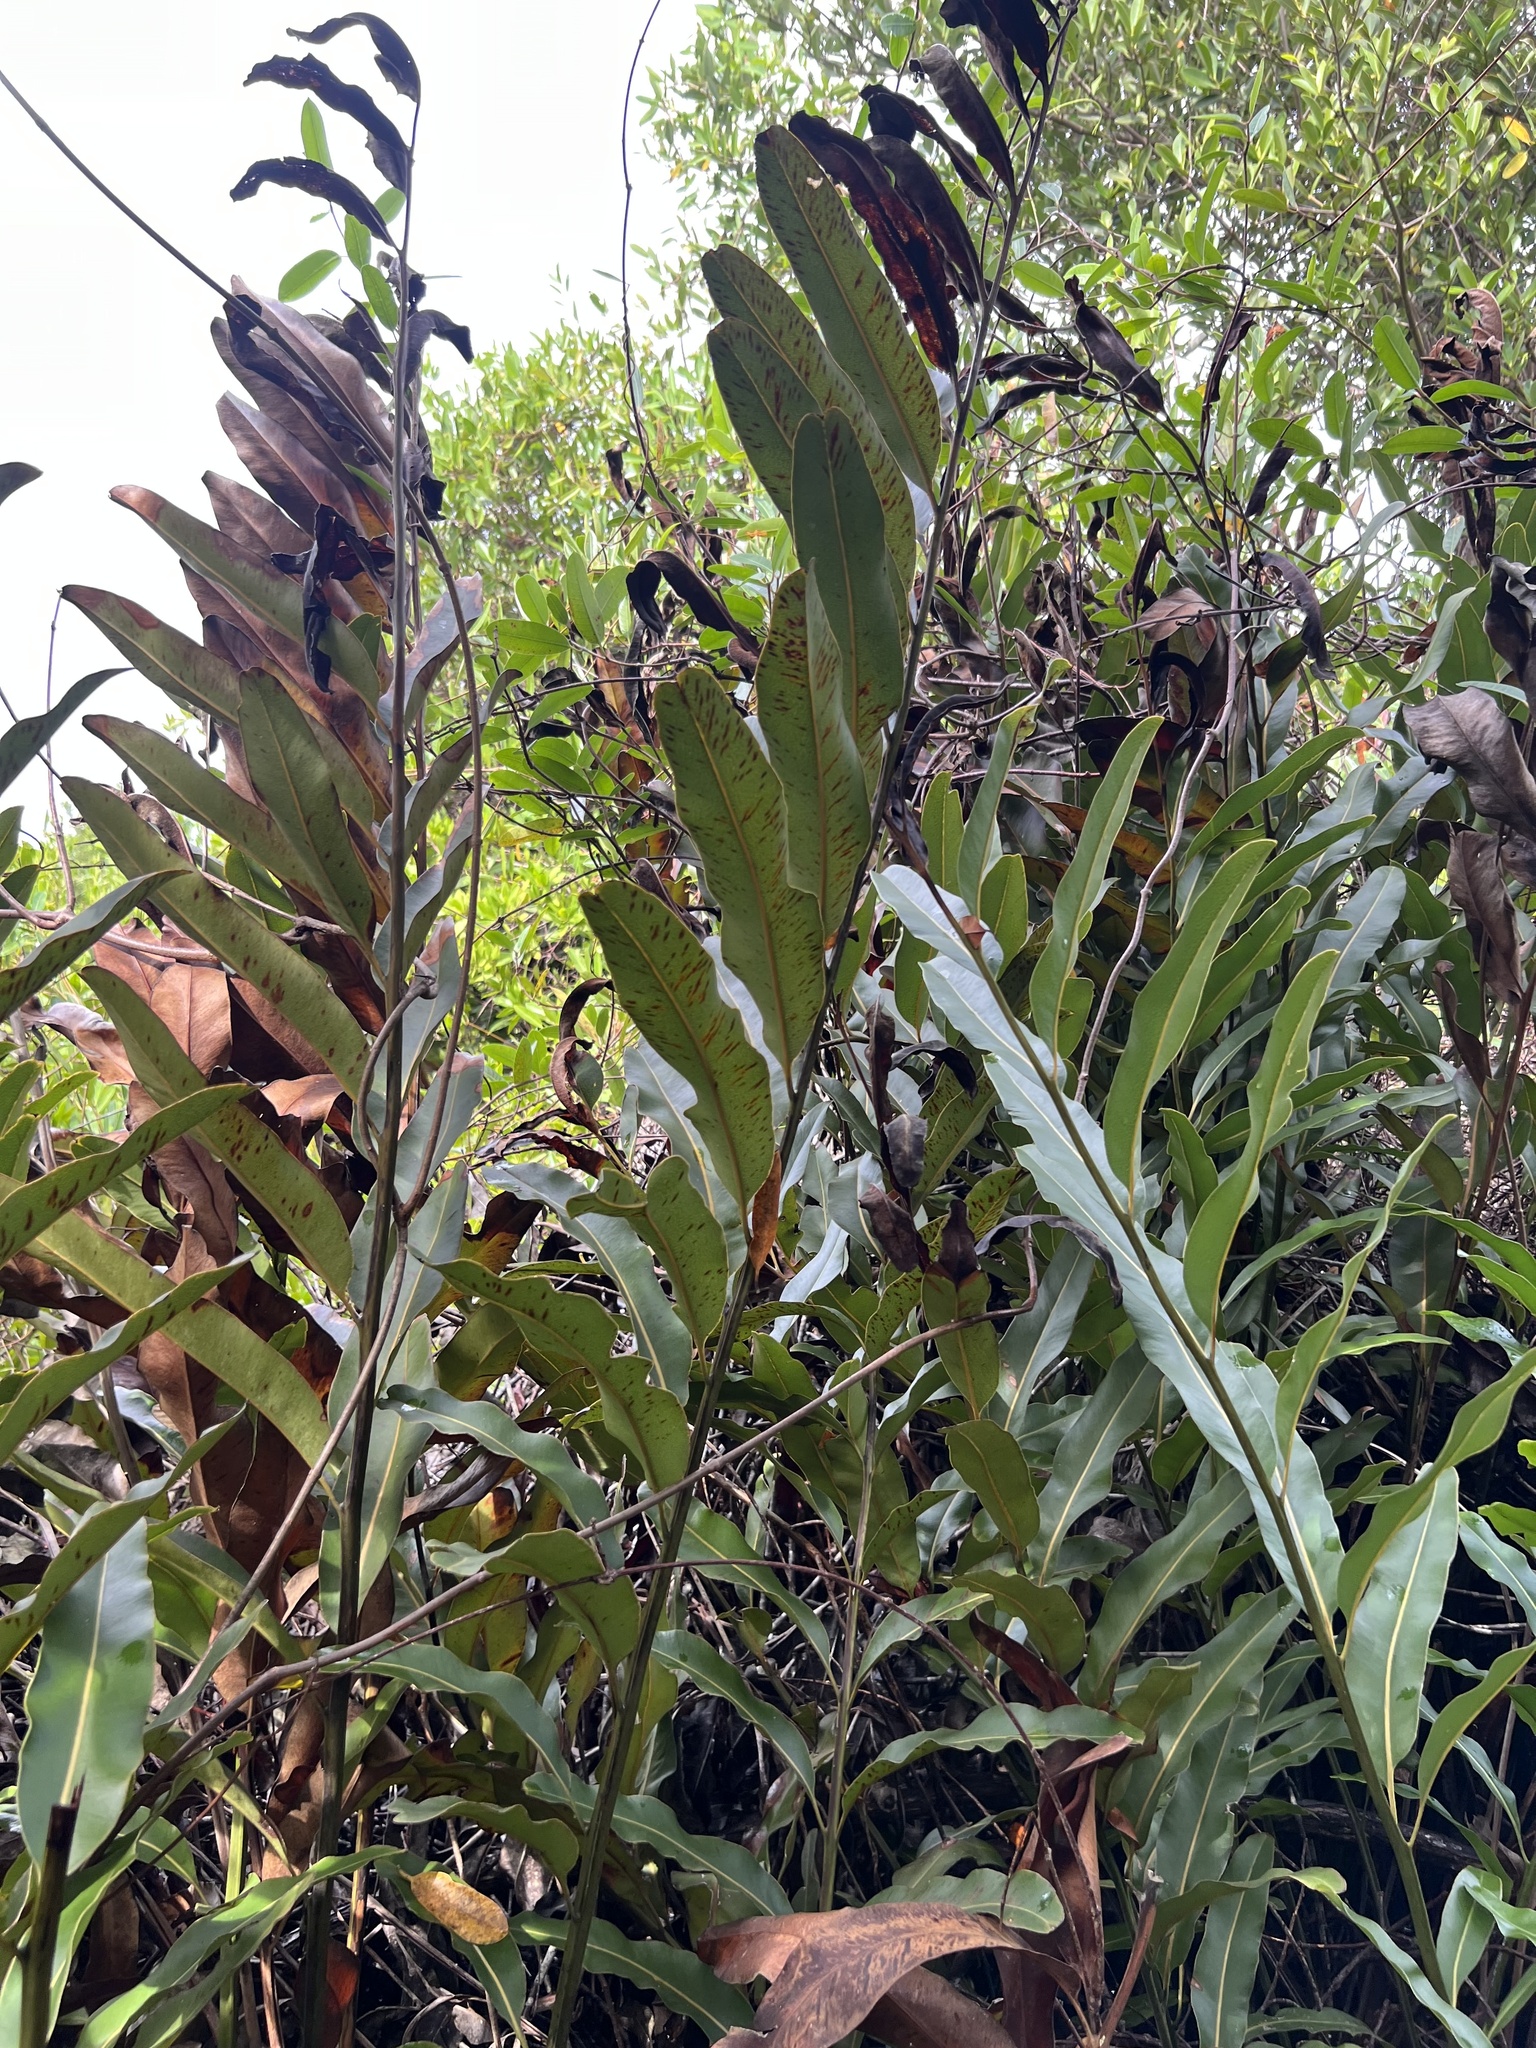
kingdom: Plantae
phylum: Tracheophyta
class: Polypodiopsida
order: Polypodiales
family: Pteridaceae
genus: Acrostichum
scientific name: Acrostichum aureum
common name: Leather fern
